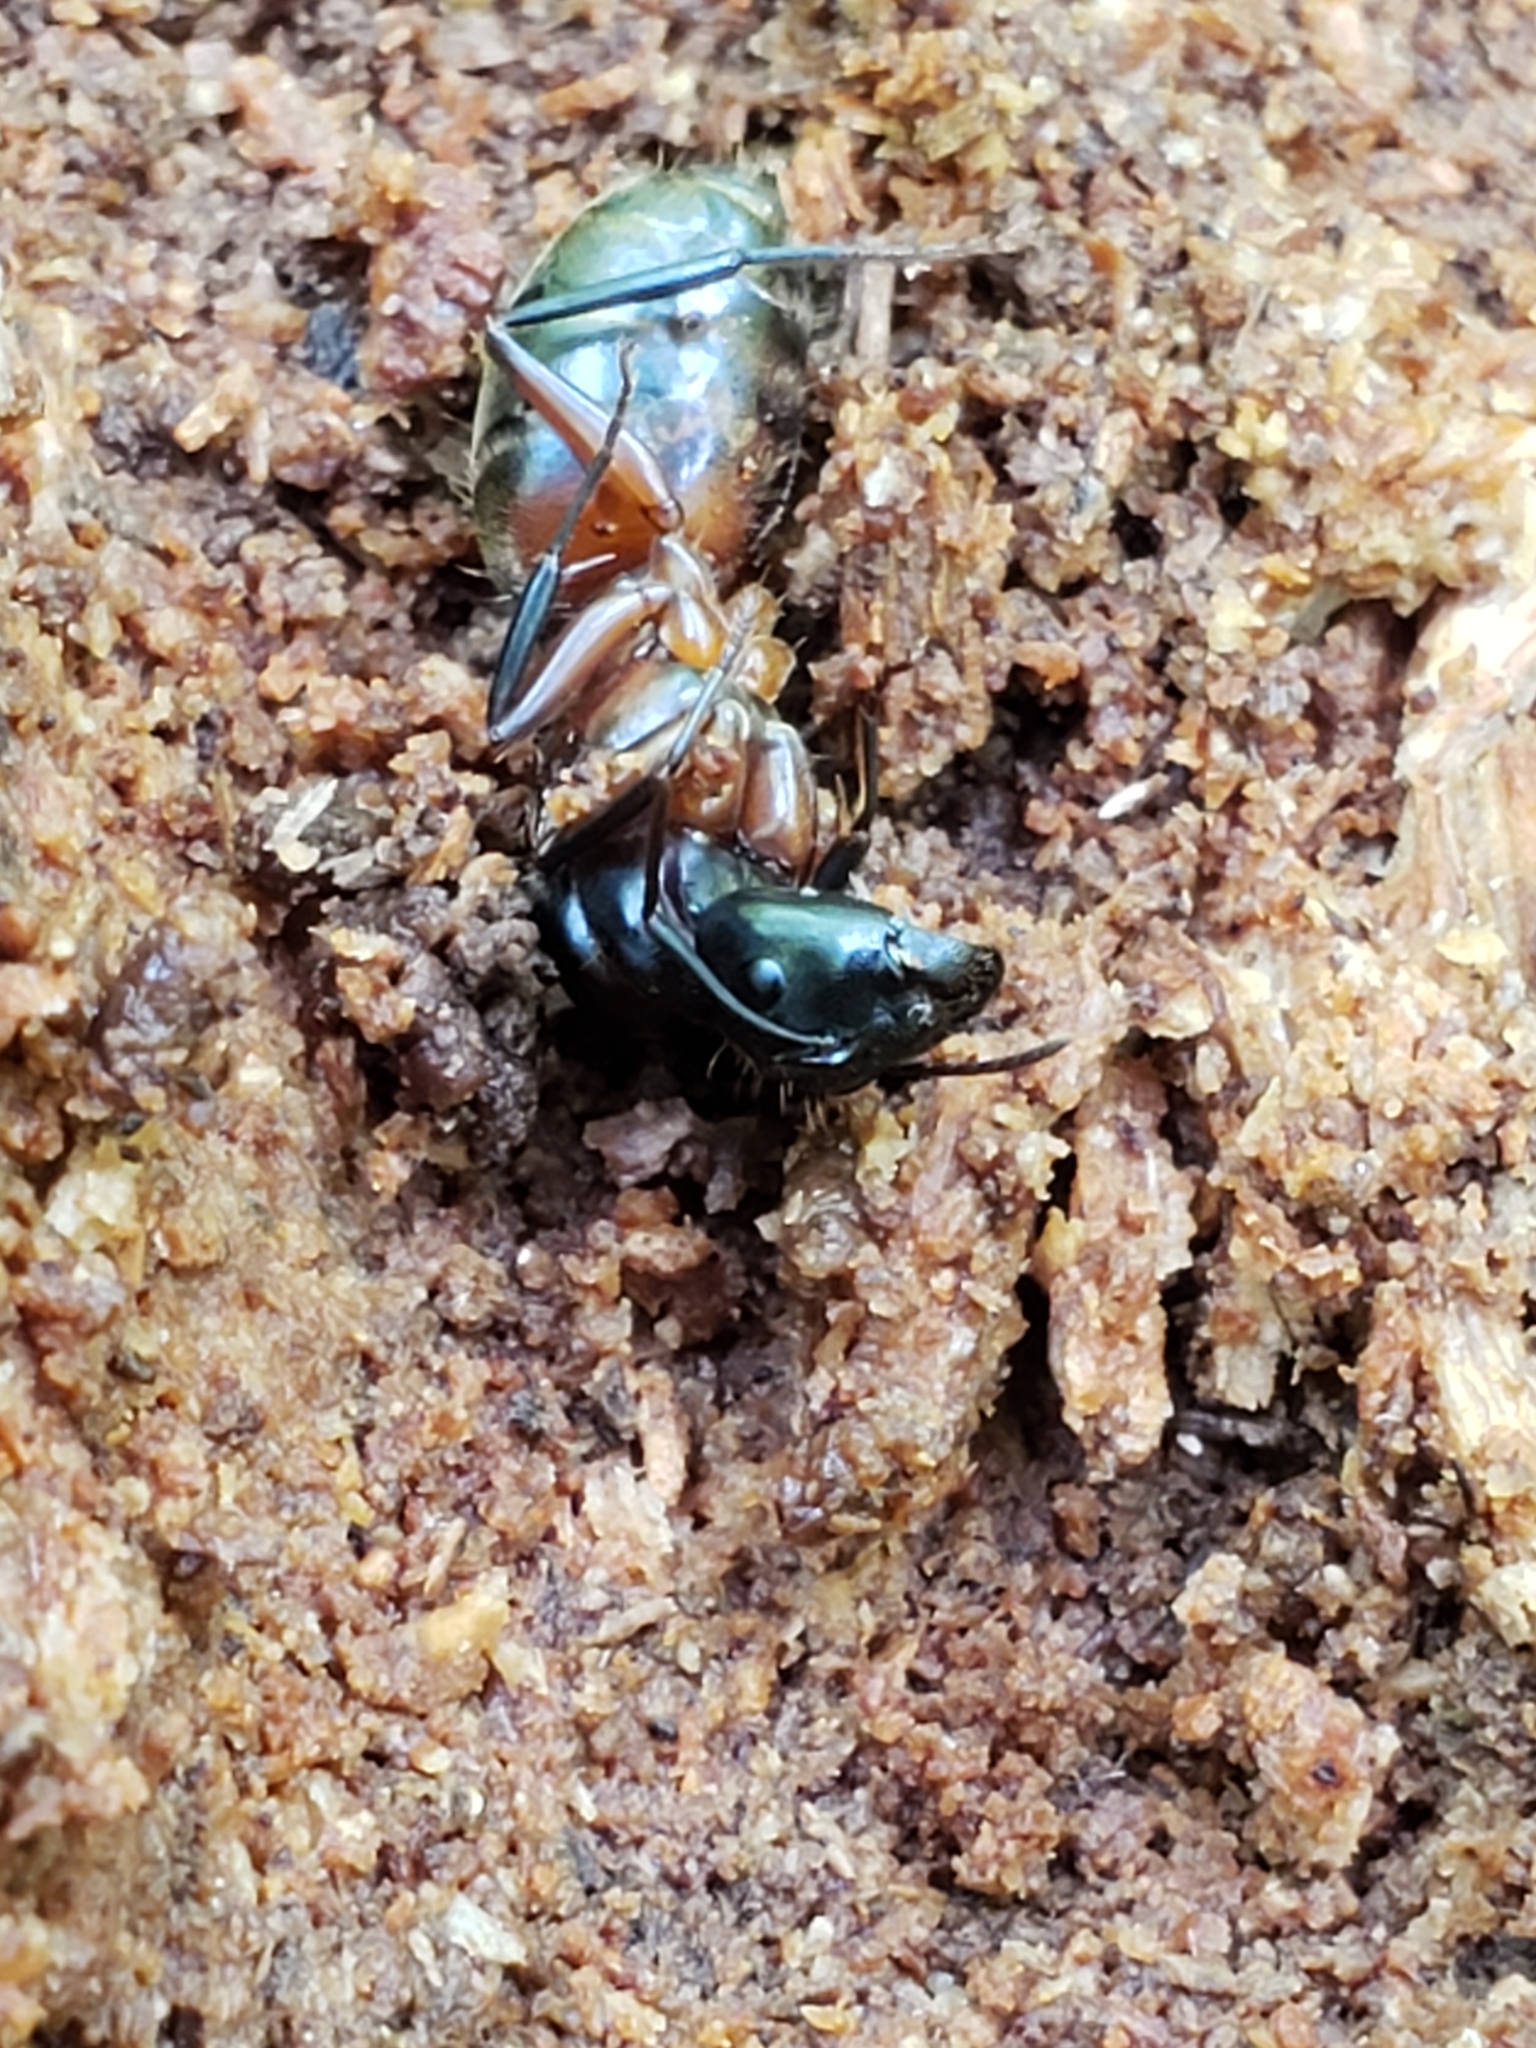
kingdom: Animalia
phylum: Arthropoda
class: Insecta
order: Hymenoptera
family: Formicidae
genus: Camponotus
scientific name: Camponotus chromaiodes
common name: Red carpenter ant
